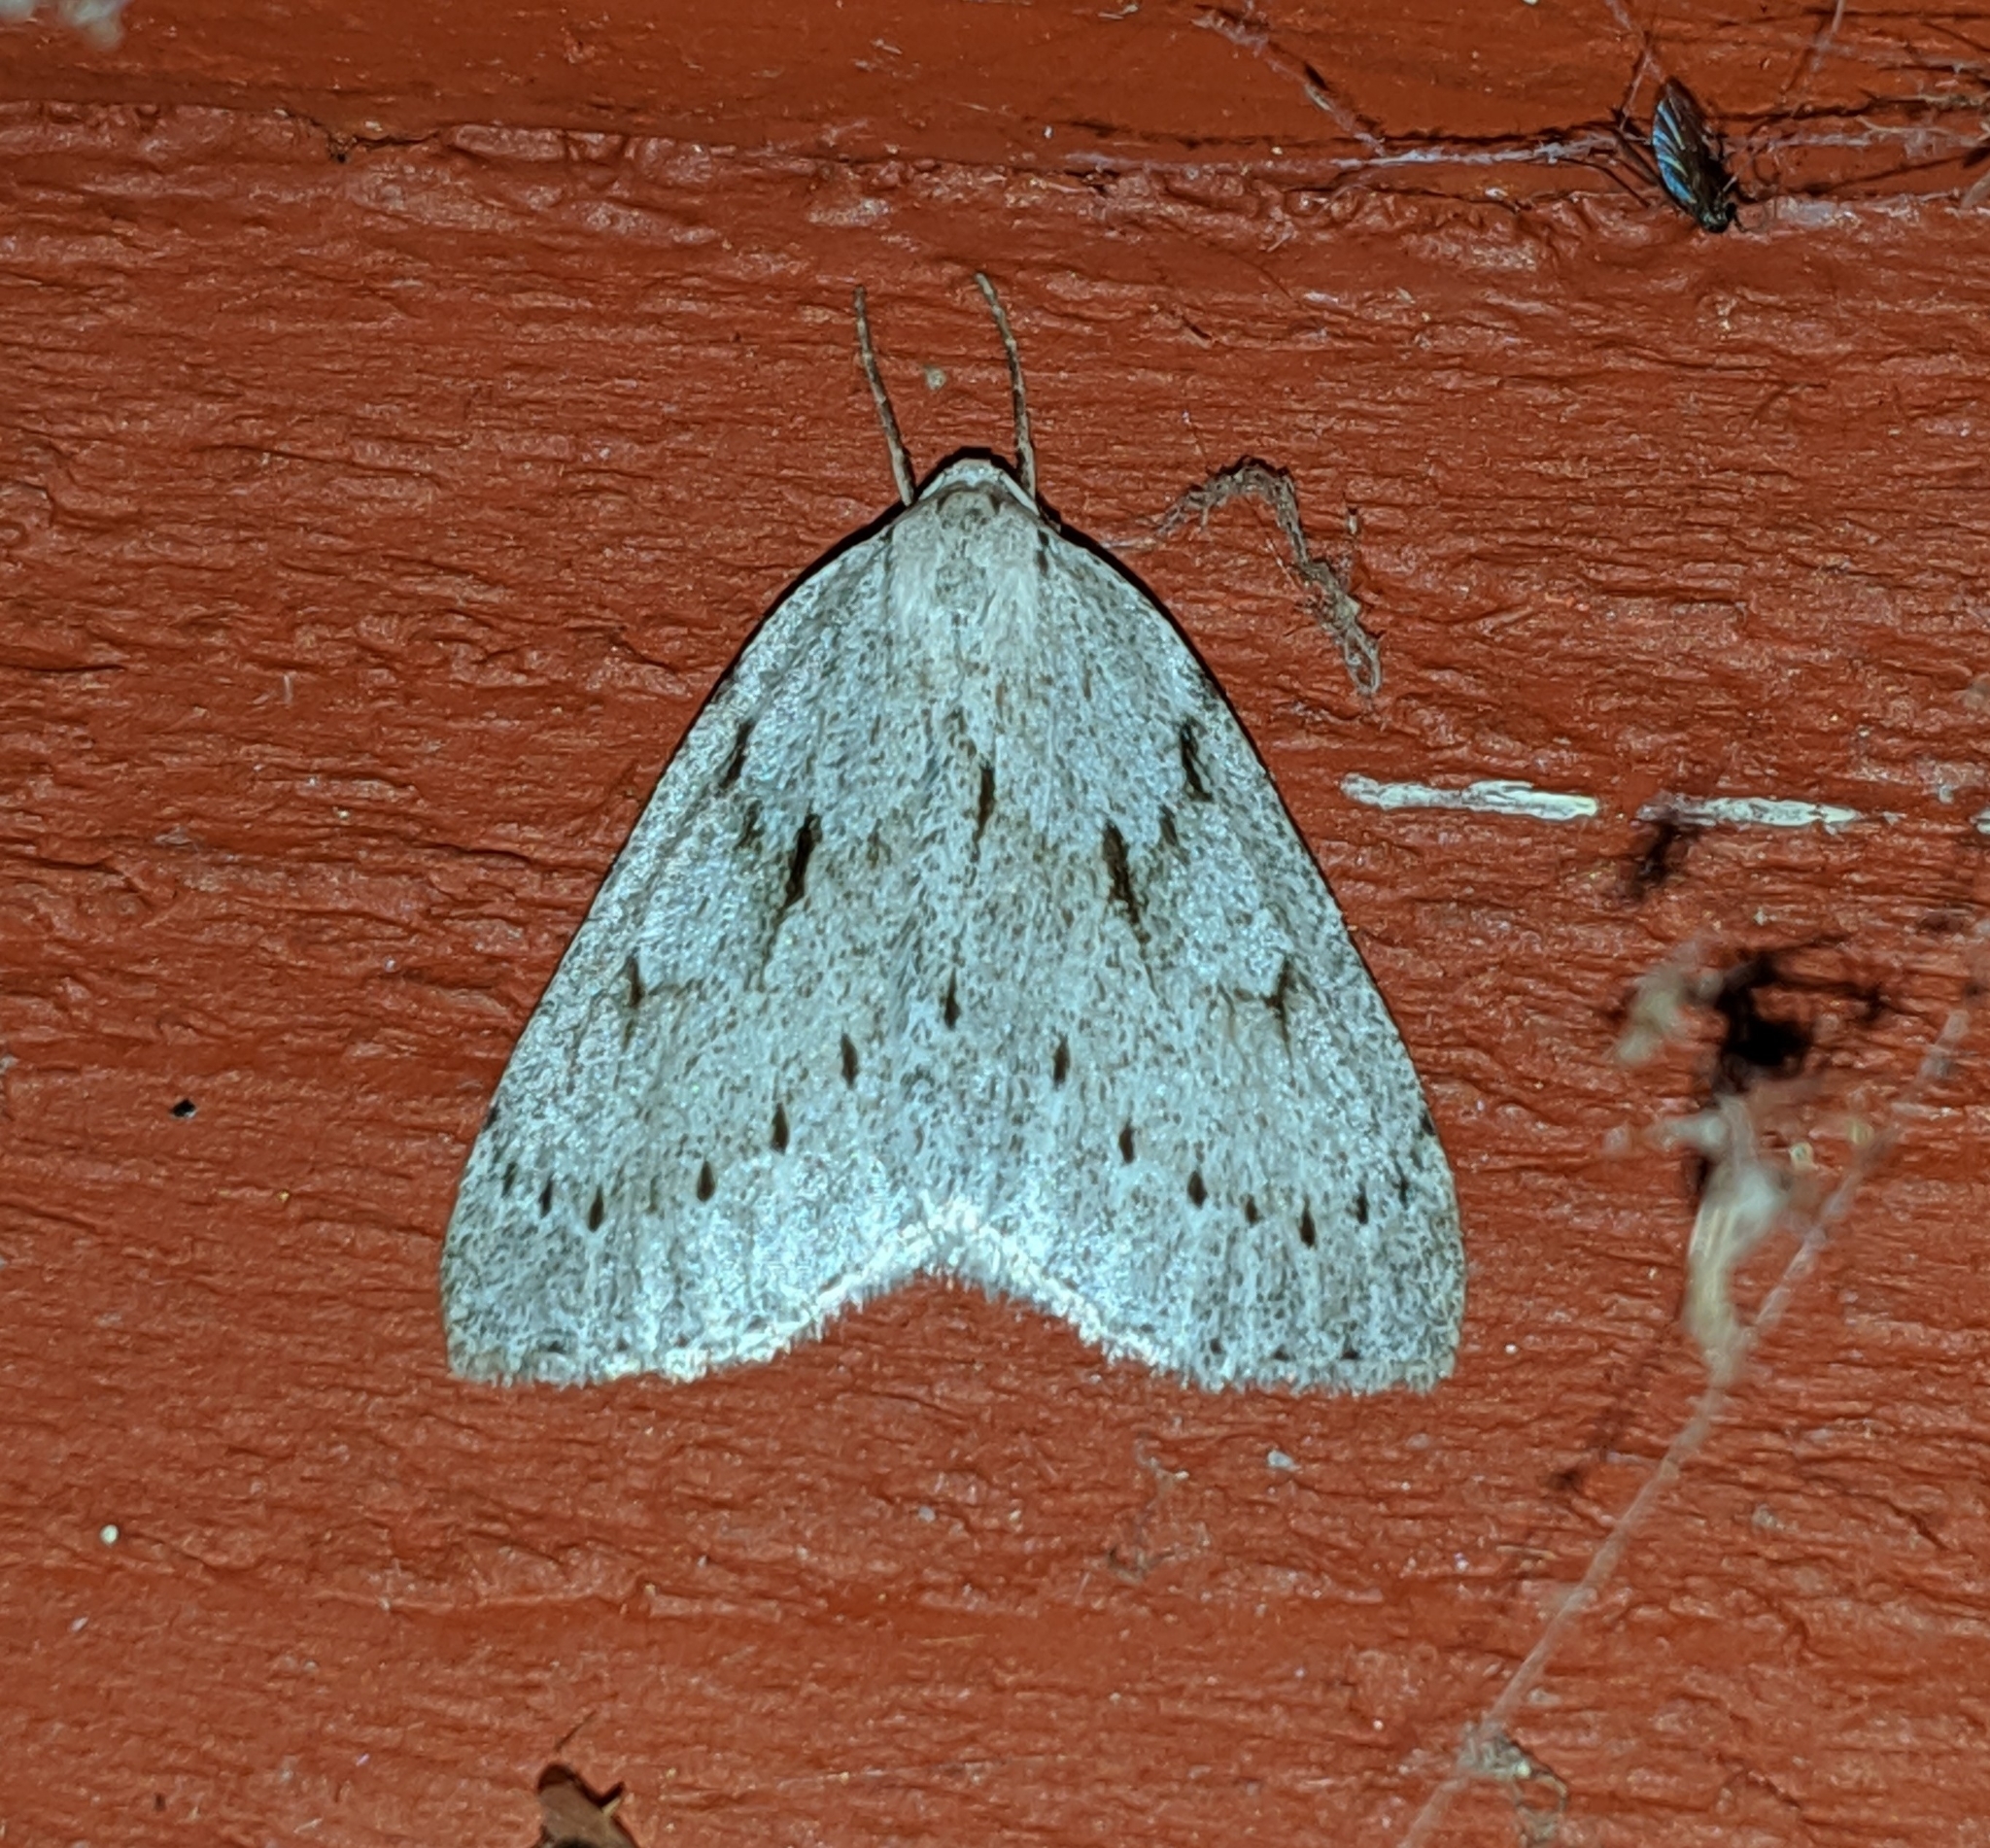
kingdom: Animalia
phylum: Arthropoda
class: Insecta
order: Lepidoptera
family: Geometridae
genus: Philedia
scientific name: Philedia punctomacularia
